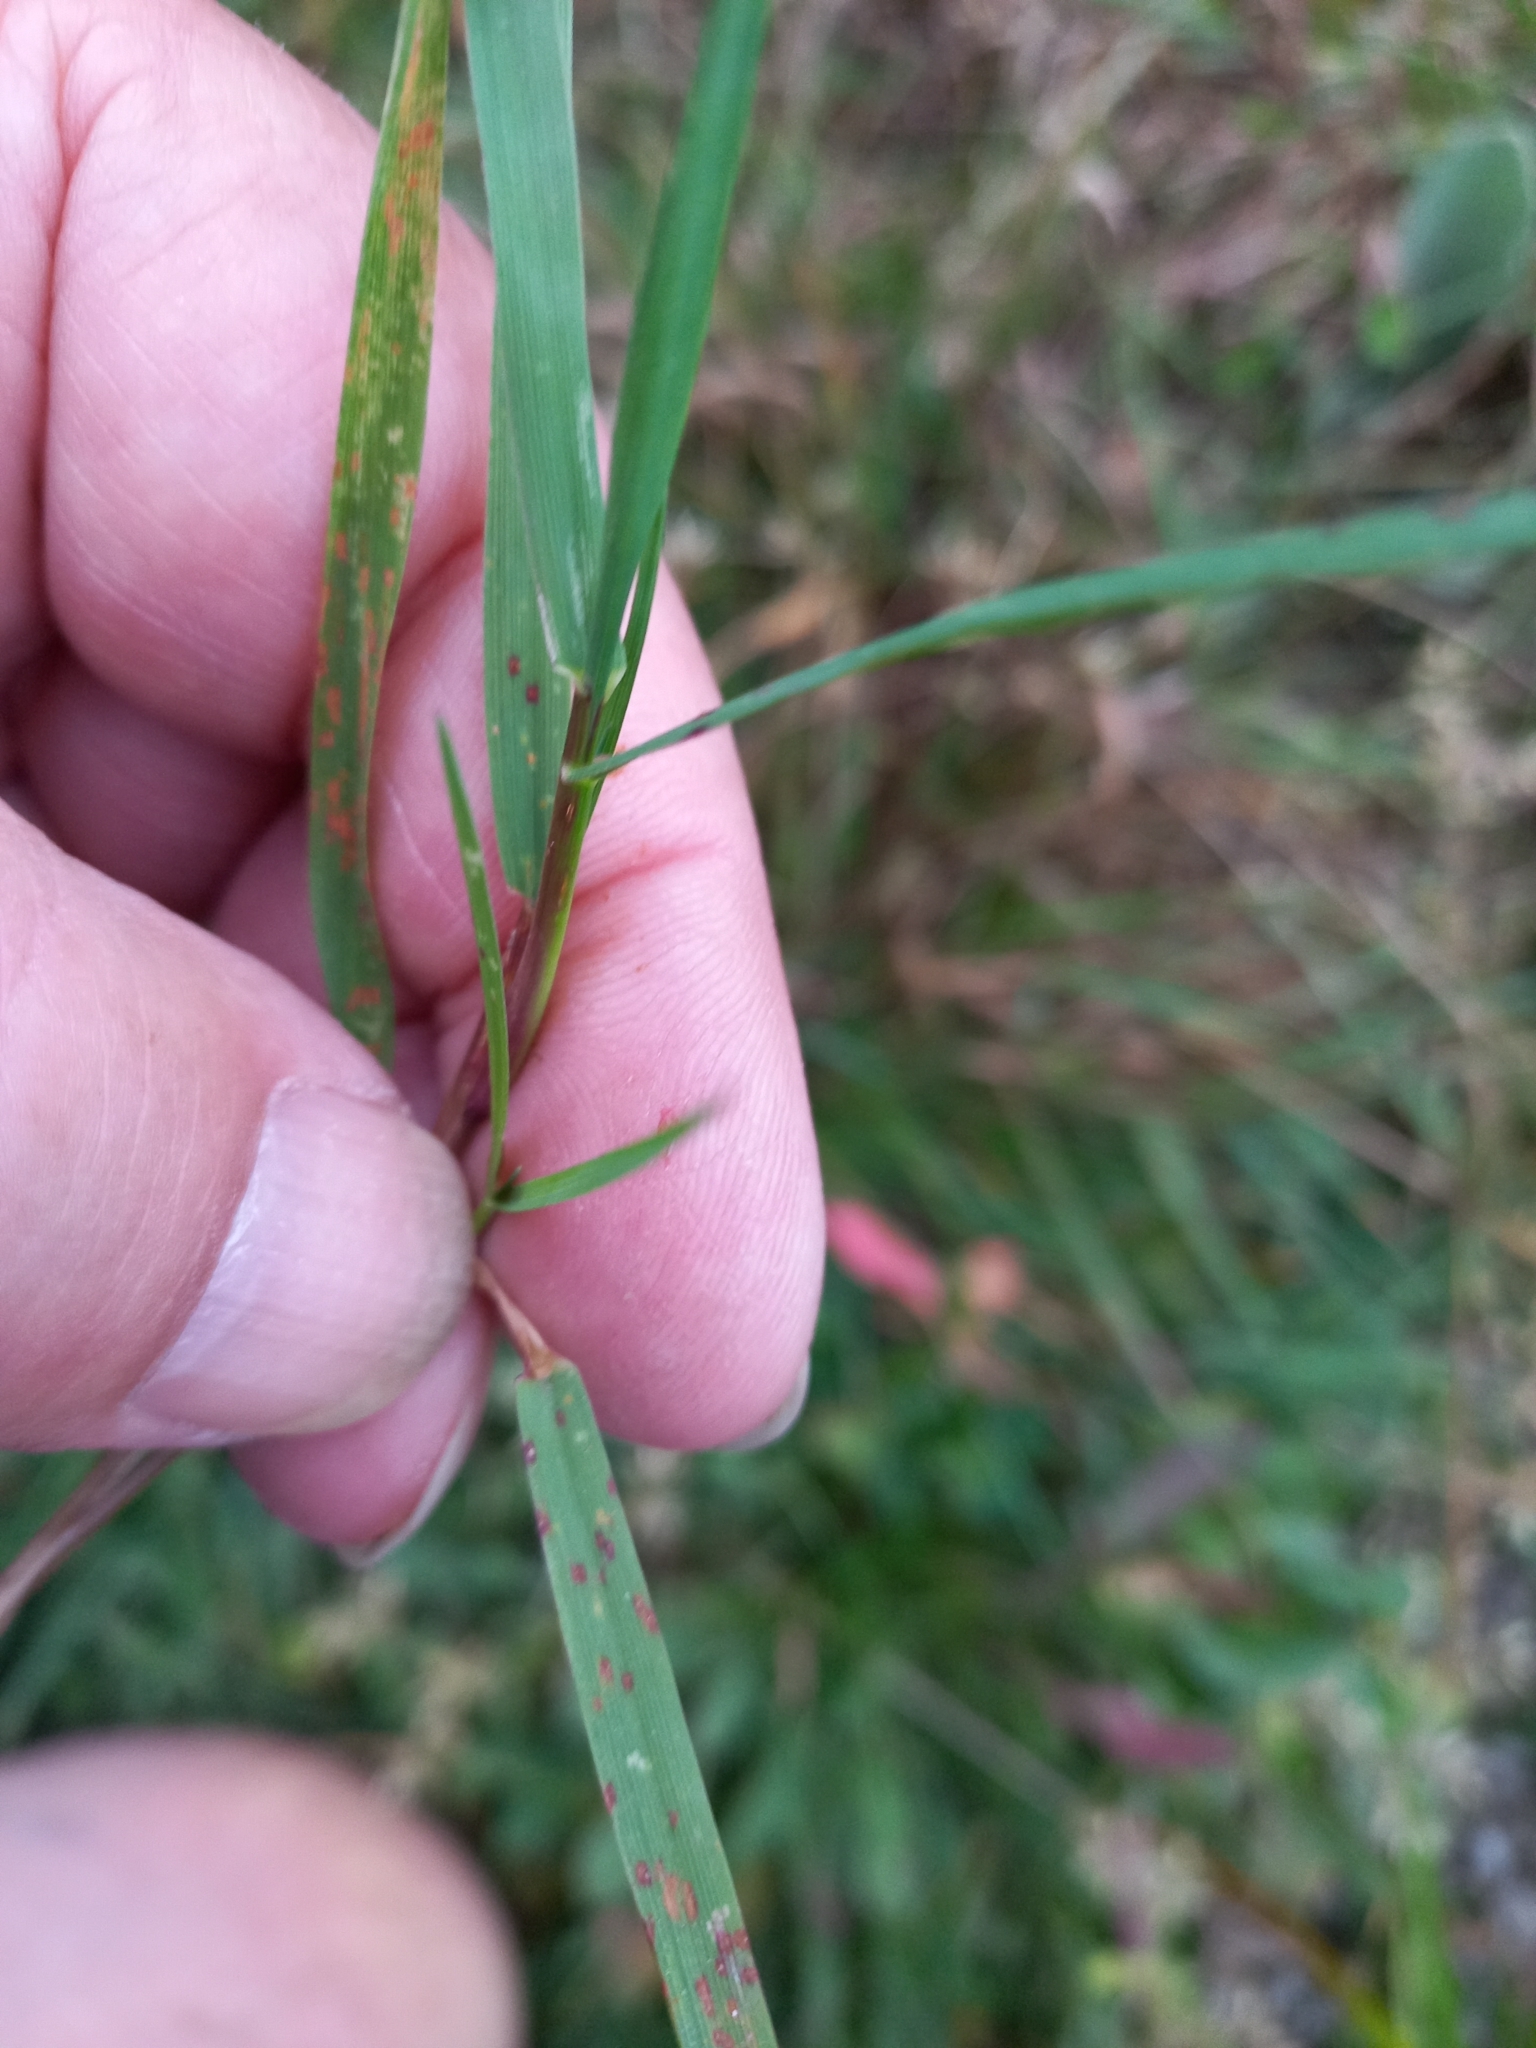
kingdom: Plantae
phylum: Tracheophyta
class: Liliopsida
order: Poales
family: Poaceae
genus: Agrostis
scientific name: Agrostis capillaris
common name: Colonial bentgrass
